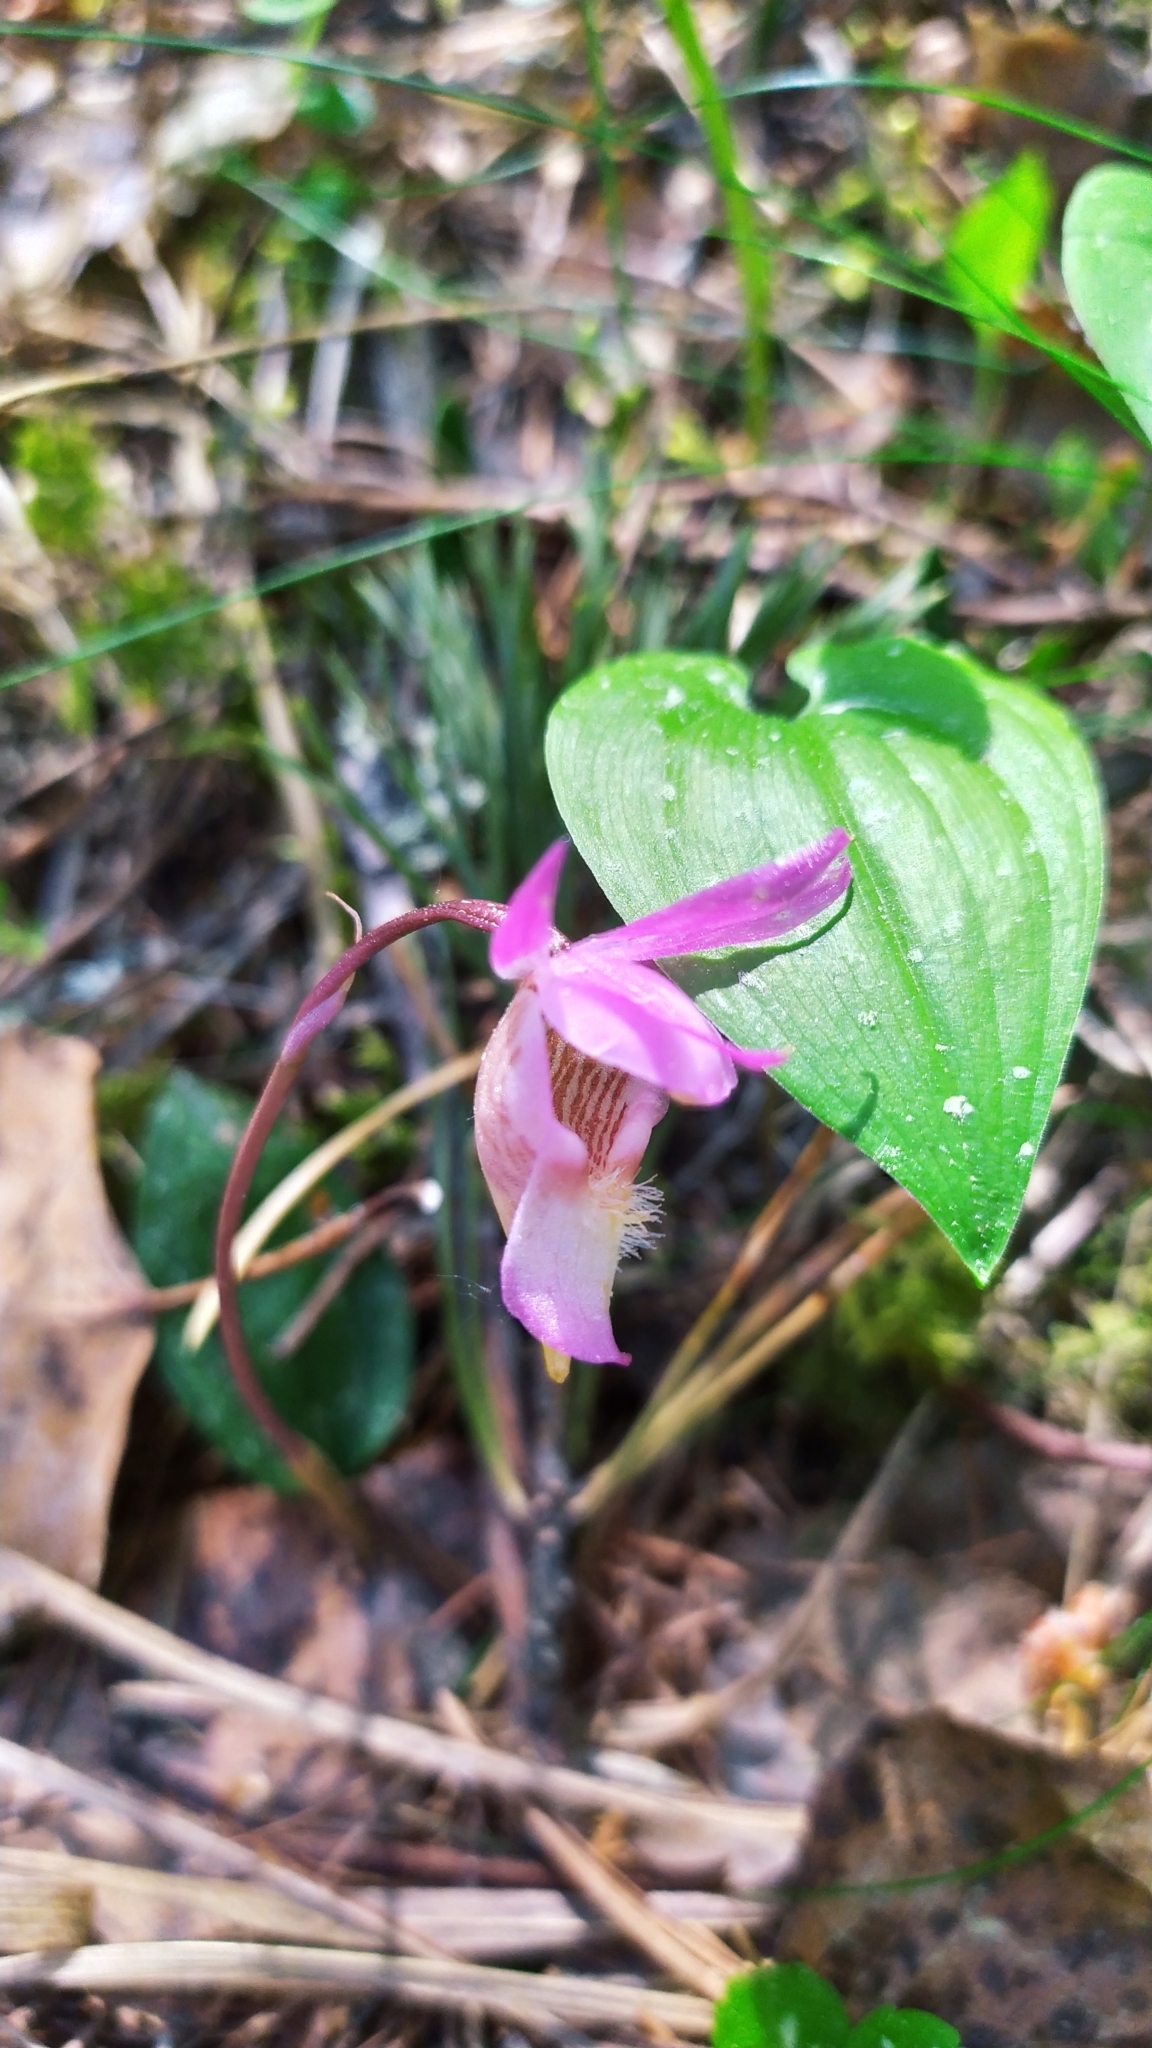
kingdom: Plantae
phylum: Tracheophyta
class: Liliopsida
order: Asparagales
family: Orchidaceae
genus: Calypso
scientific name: Calypso bulbosa
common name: Calypso
